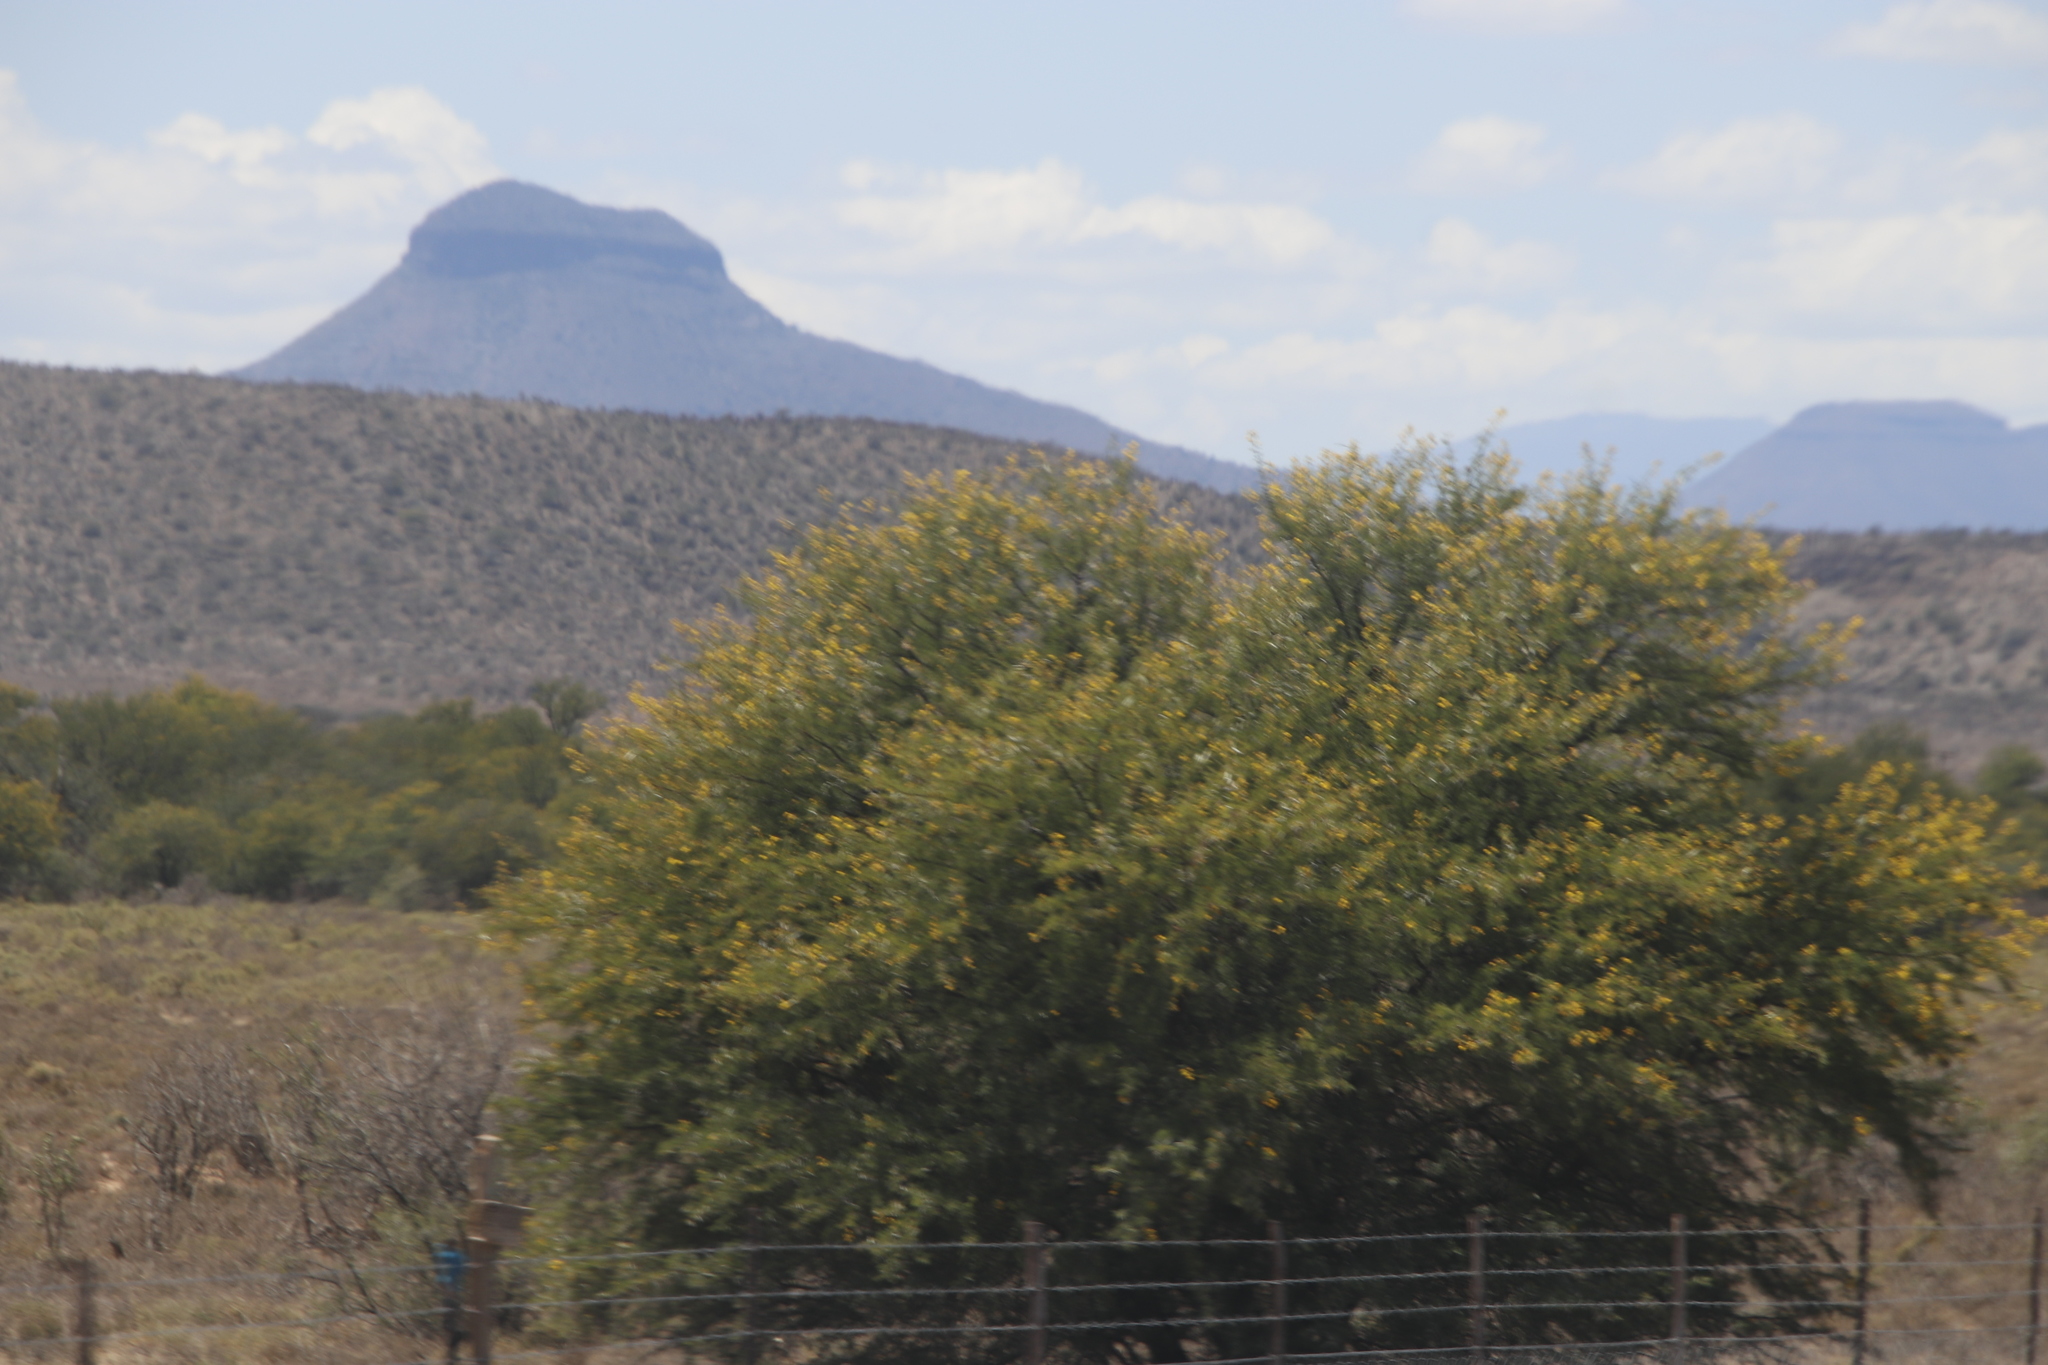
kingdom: Plantae
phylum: Tracheophyta
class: Magnoliopsida
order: Fabales
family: Fabaceae
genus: Vachellia
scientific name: Vachellia karroo
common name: Sweet thorn
